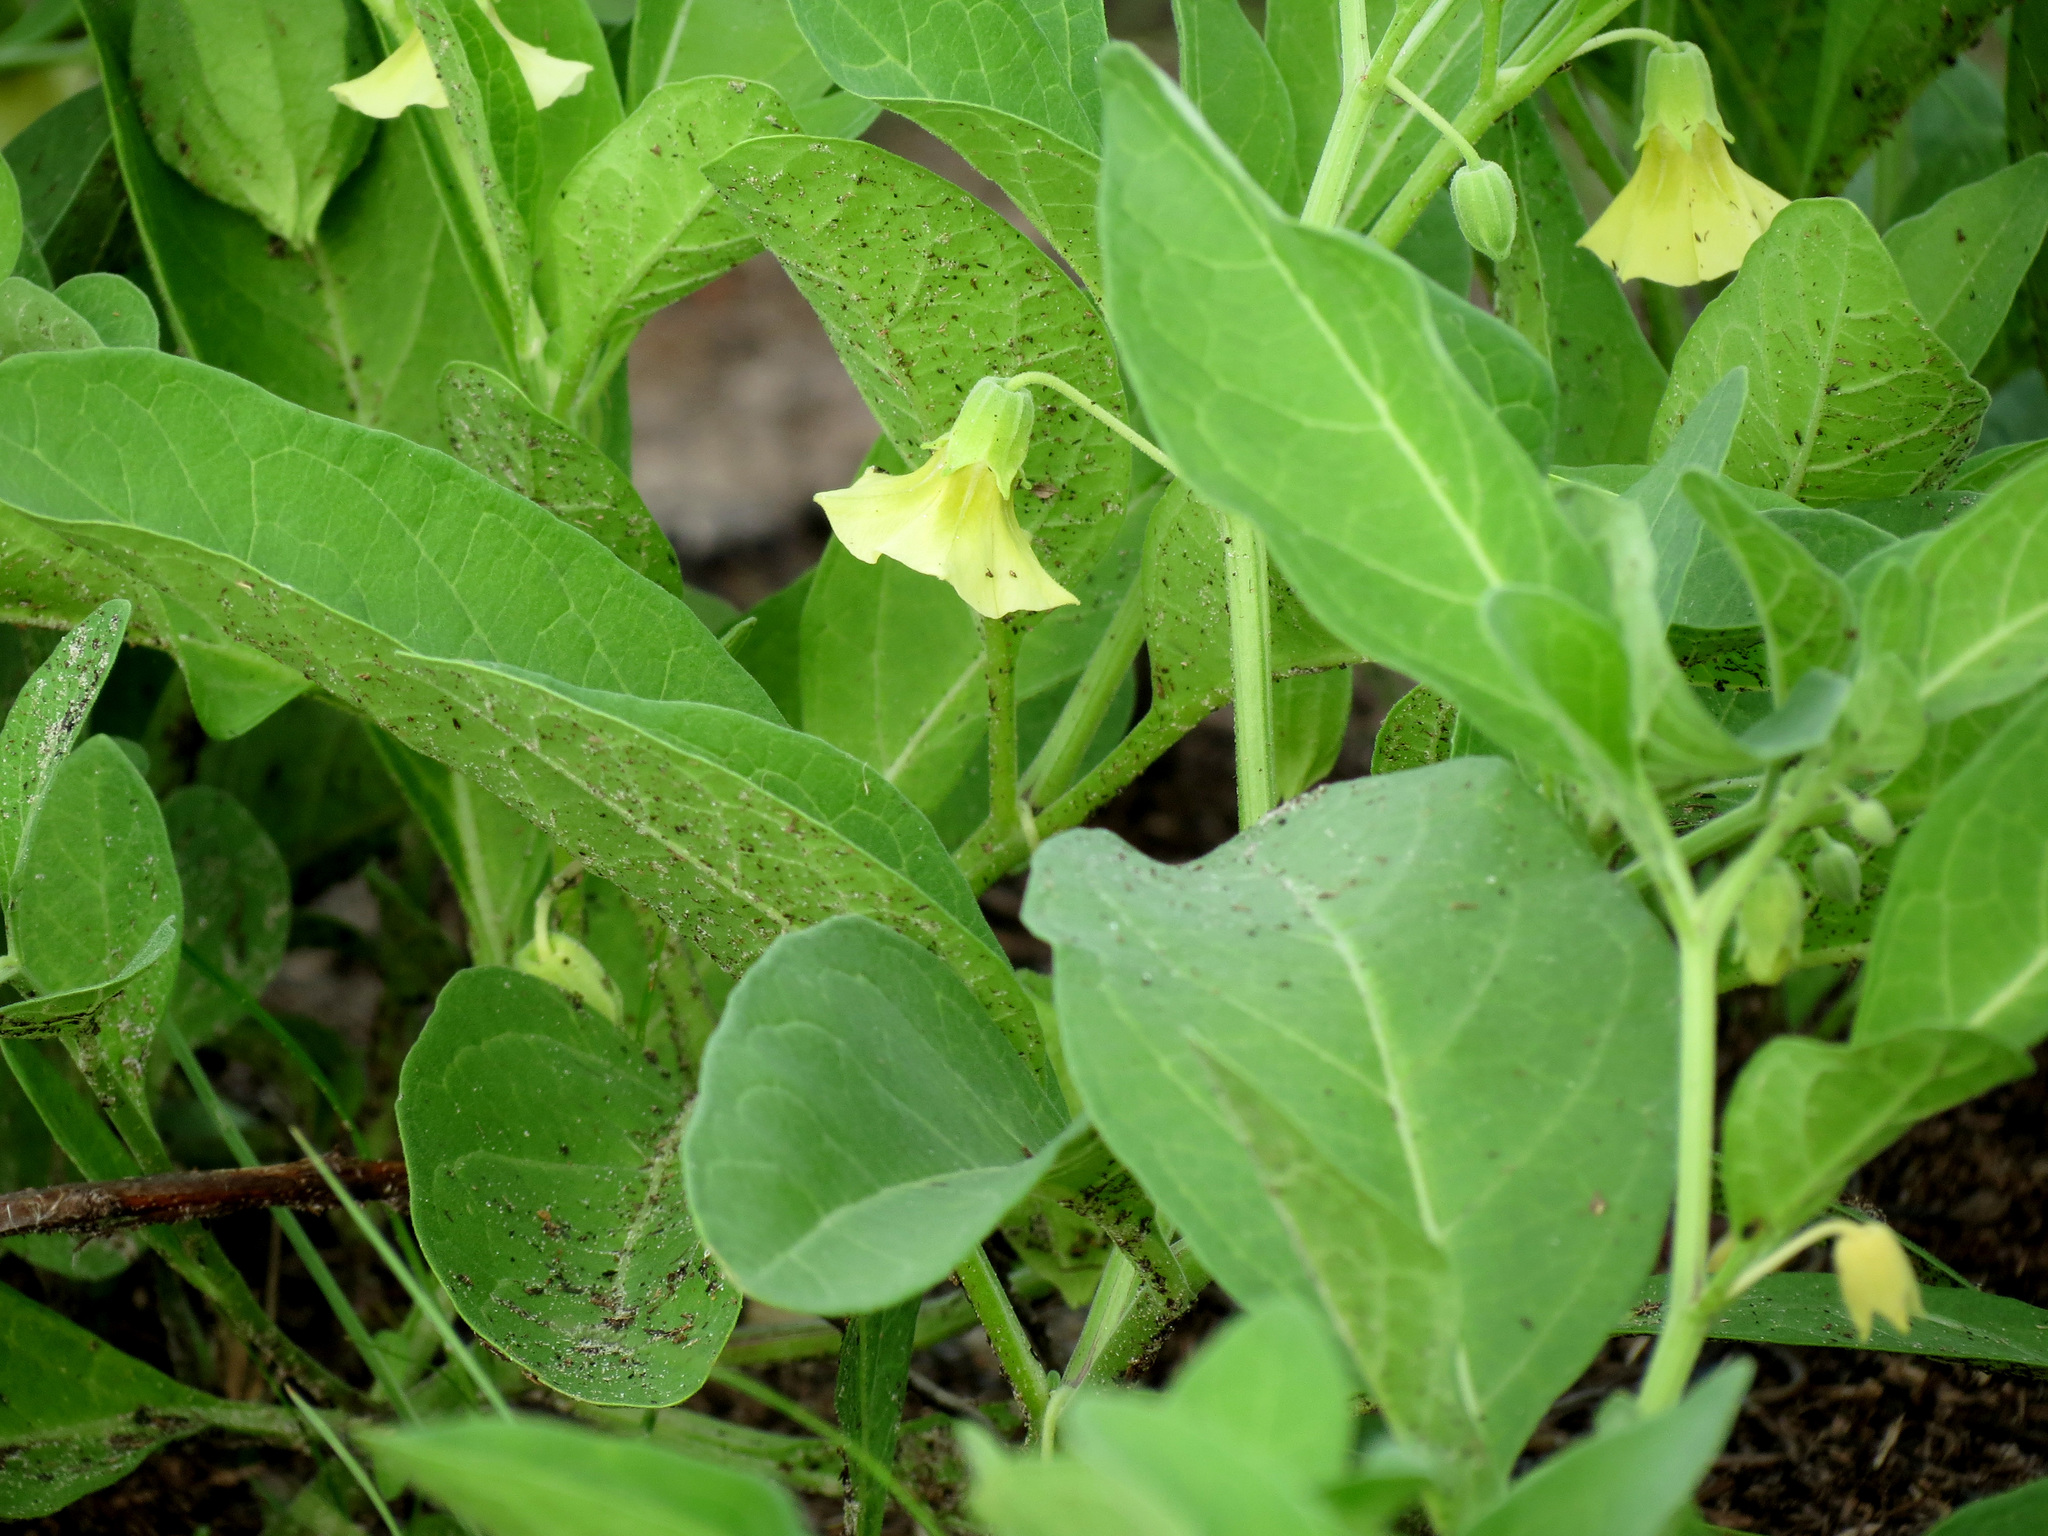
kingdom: Plantae
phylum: Tracheophyta
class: Magnoliopsida
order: Solanales
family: Solanaceae
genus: Physalis
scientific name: Physalis walteri
